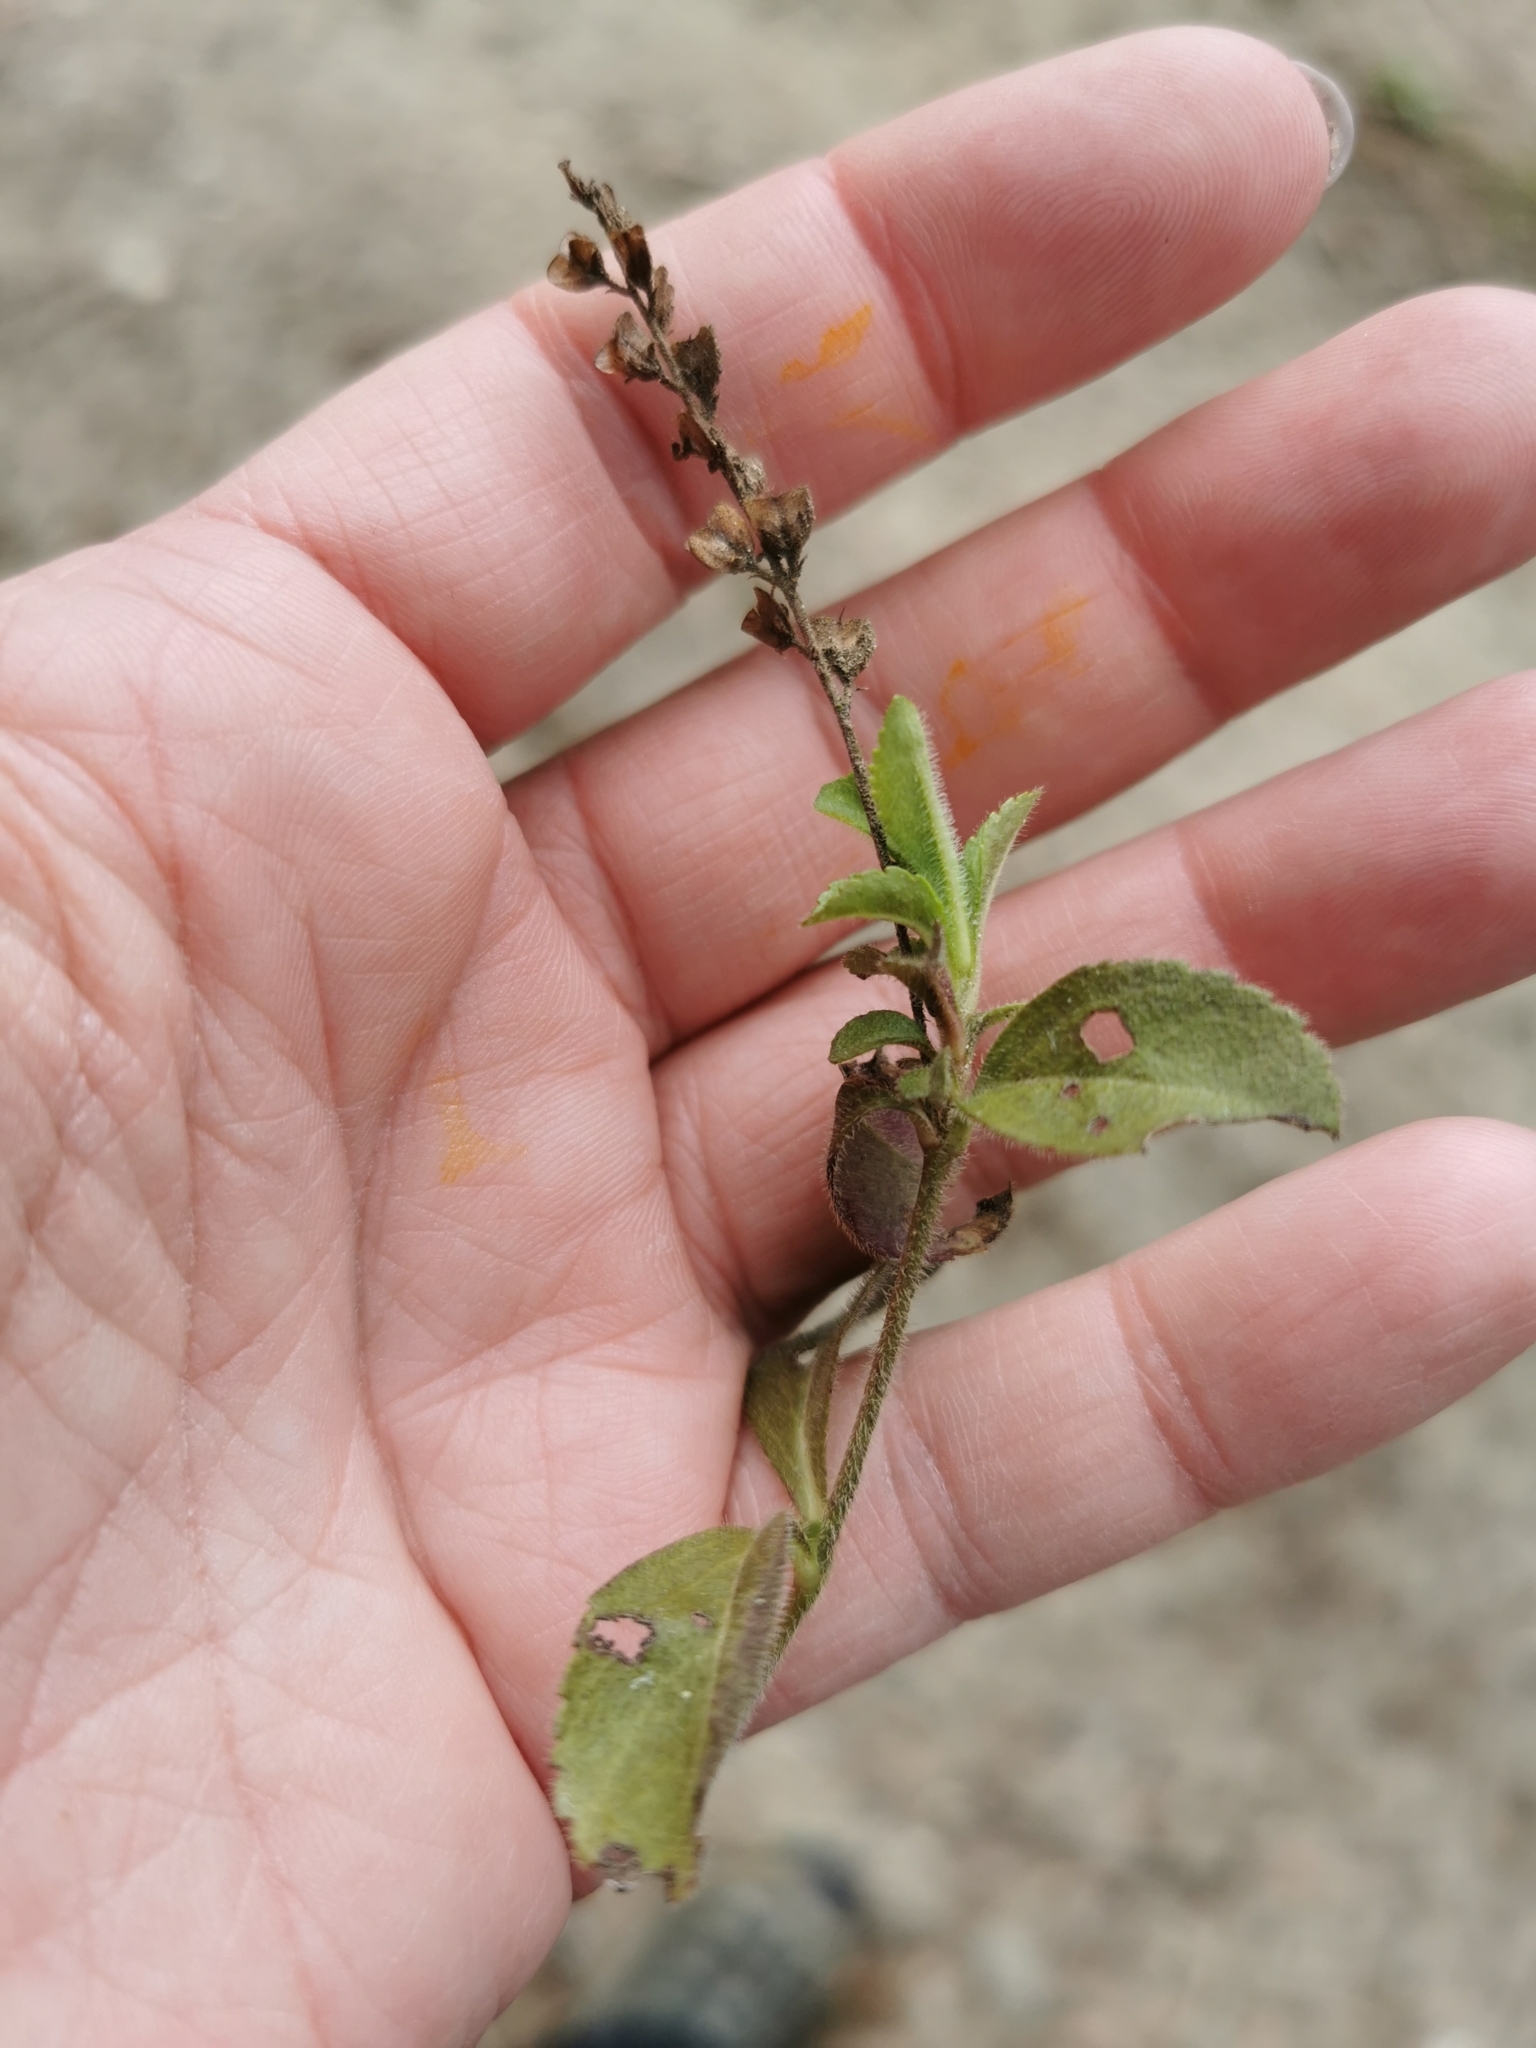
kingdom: Plantae
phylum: Tracheophyta
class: Magnoliopsida
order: Lamiales
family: Plantaginaceae
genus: Veronica
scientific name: Veronica officinalis
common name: Common speedwell
